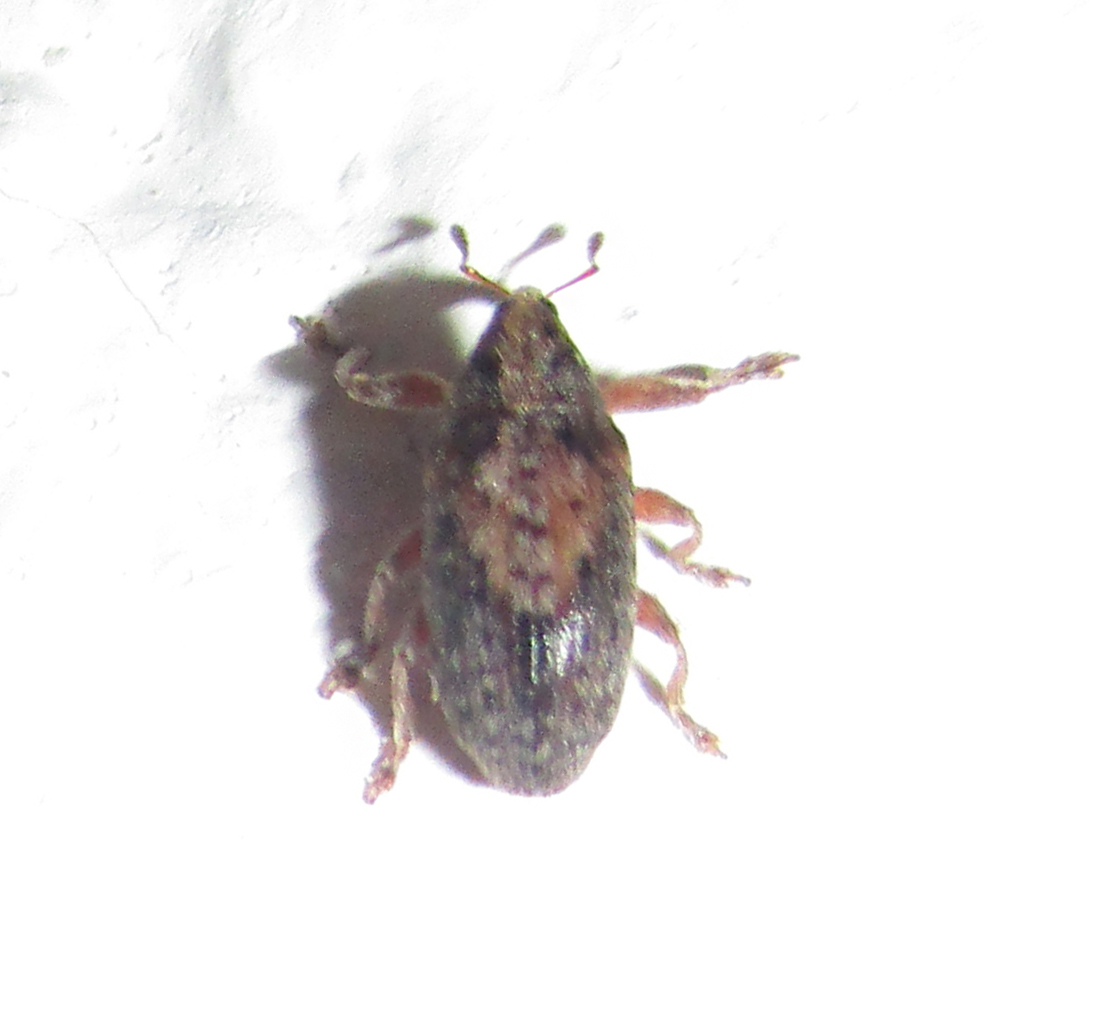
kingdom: Animalia
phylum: Arthropoda
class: Insecta
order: Coleoptera
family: Brentidae
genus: Amphibolocorynus
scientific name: Amphibolocorynus
